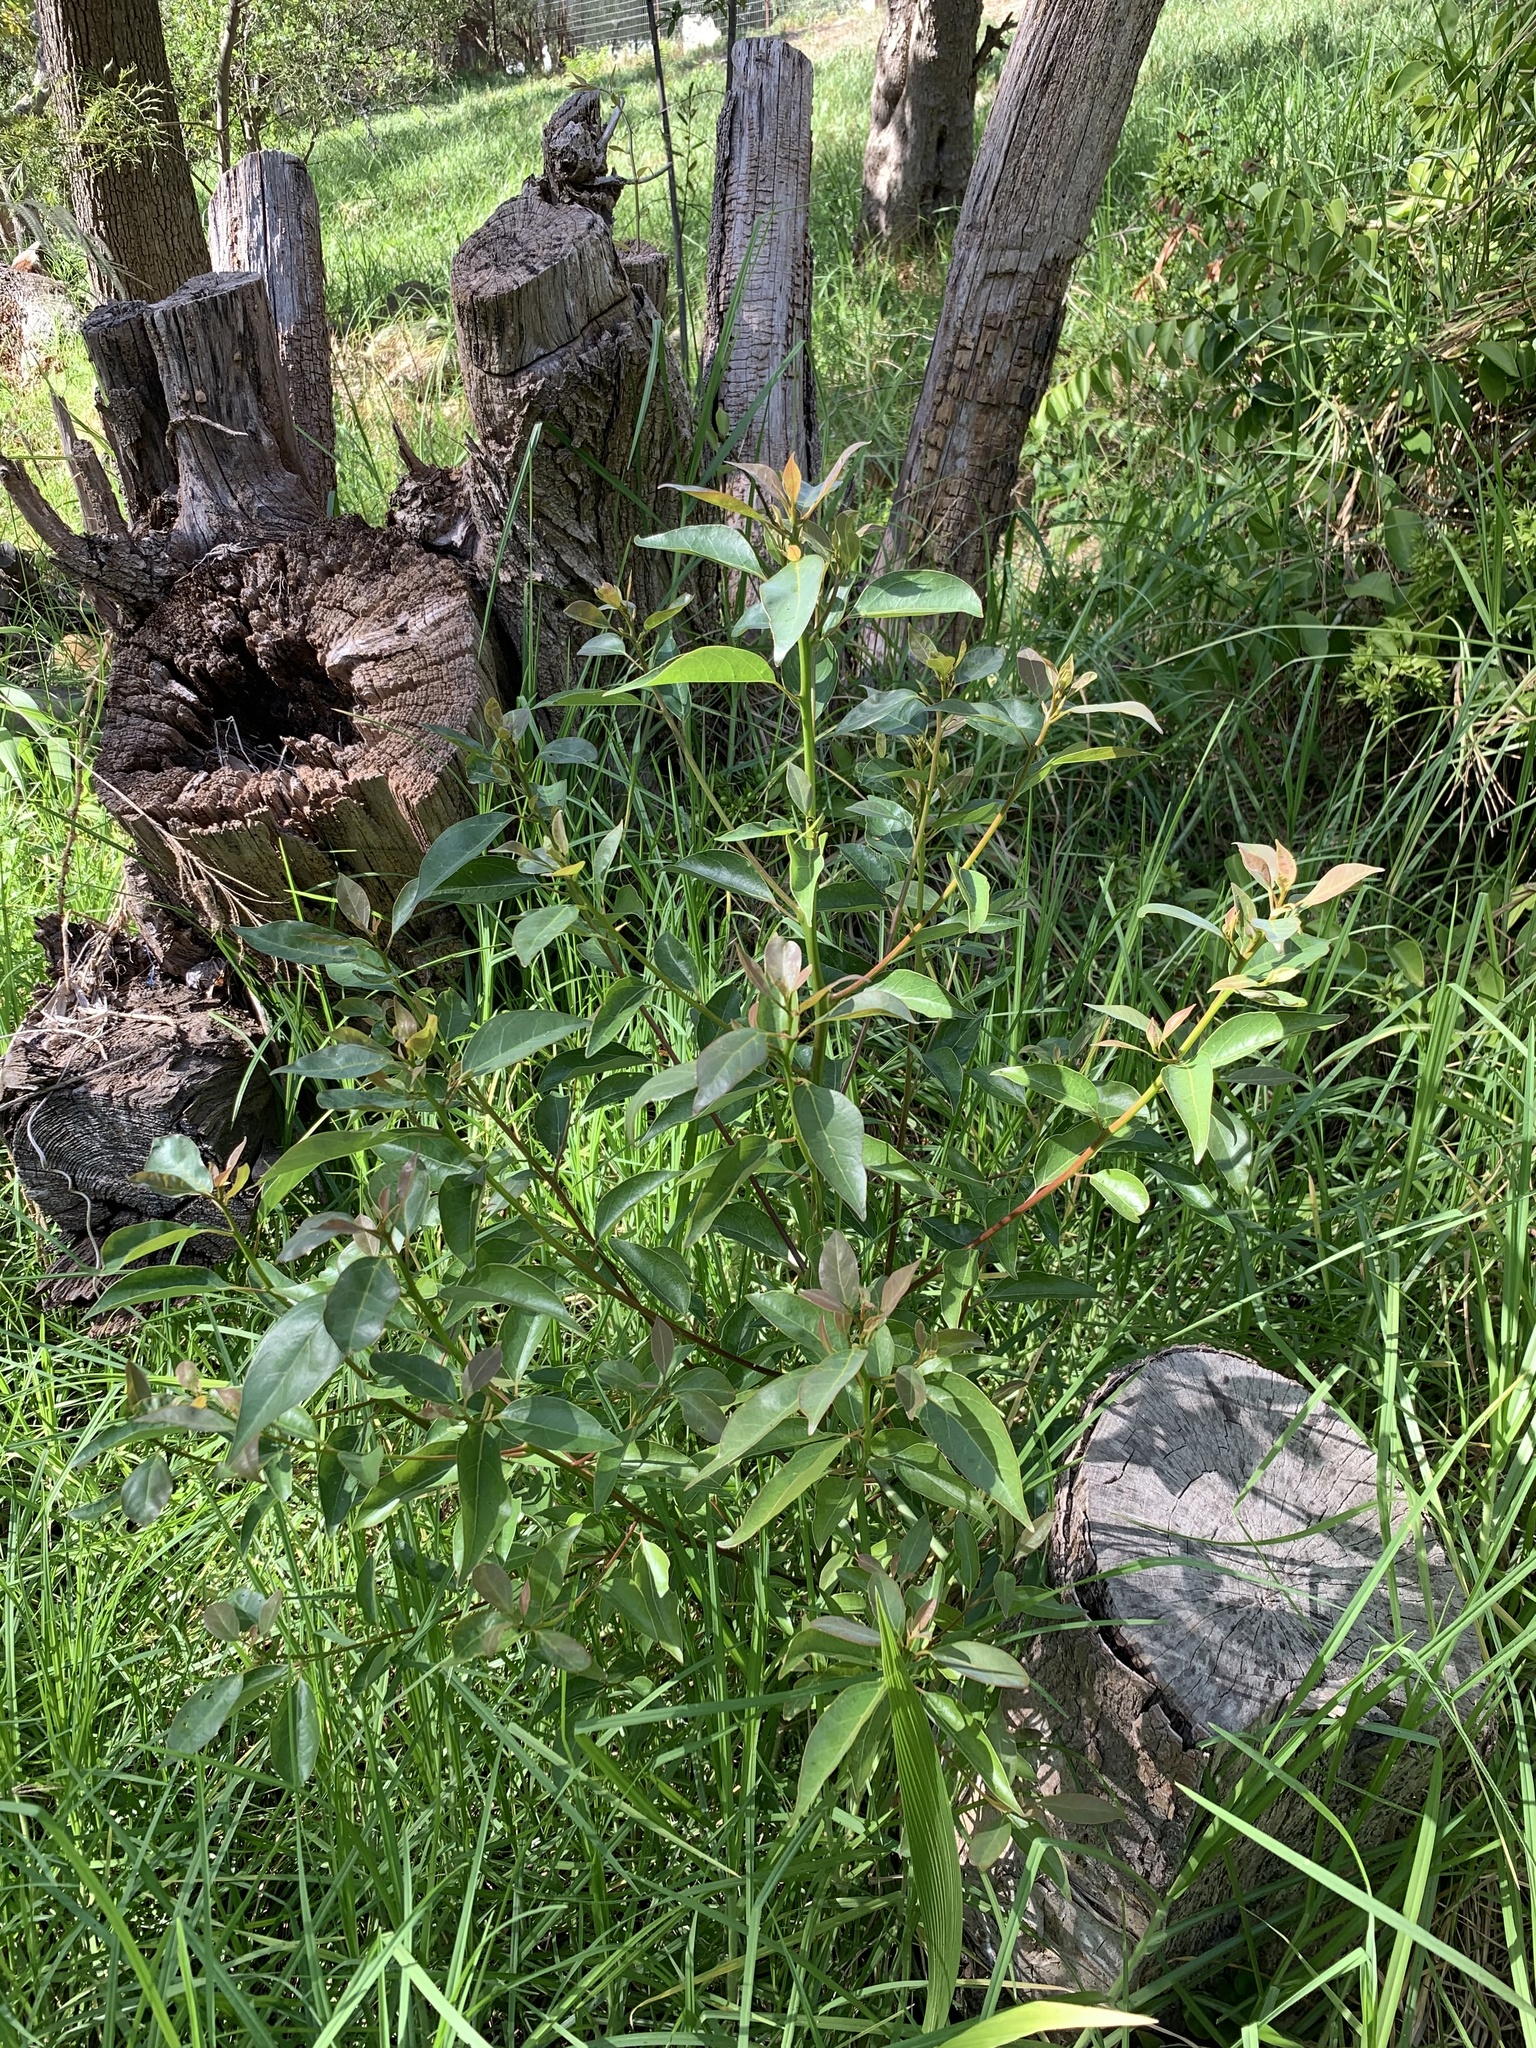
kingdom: Plantae
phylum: Tracheophyta
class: Magnoliopsida
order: Laurales
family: Lauraceae
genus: Cinnamomum
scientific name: Cinnamomum camphora
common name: Camphortree
